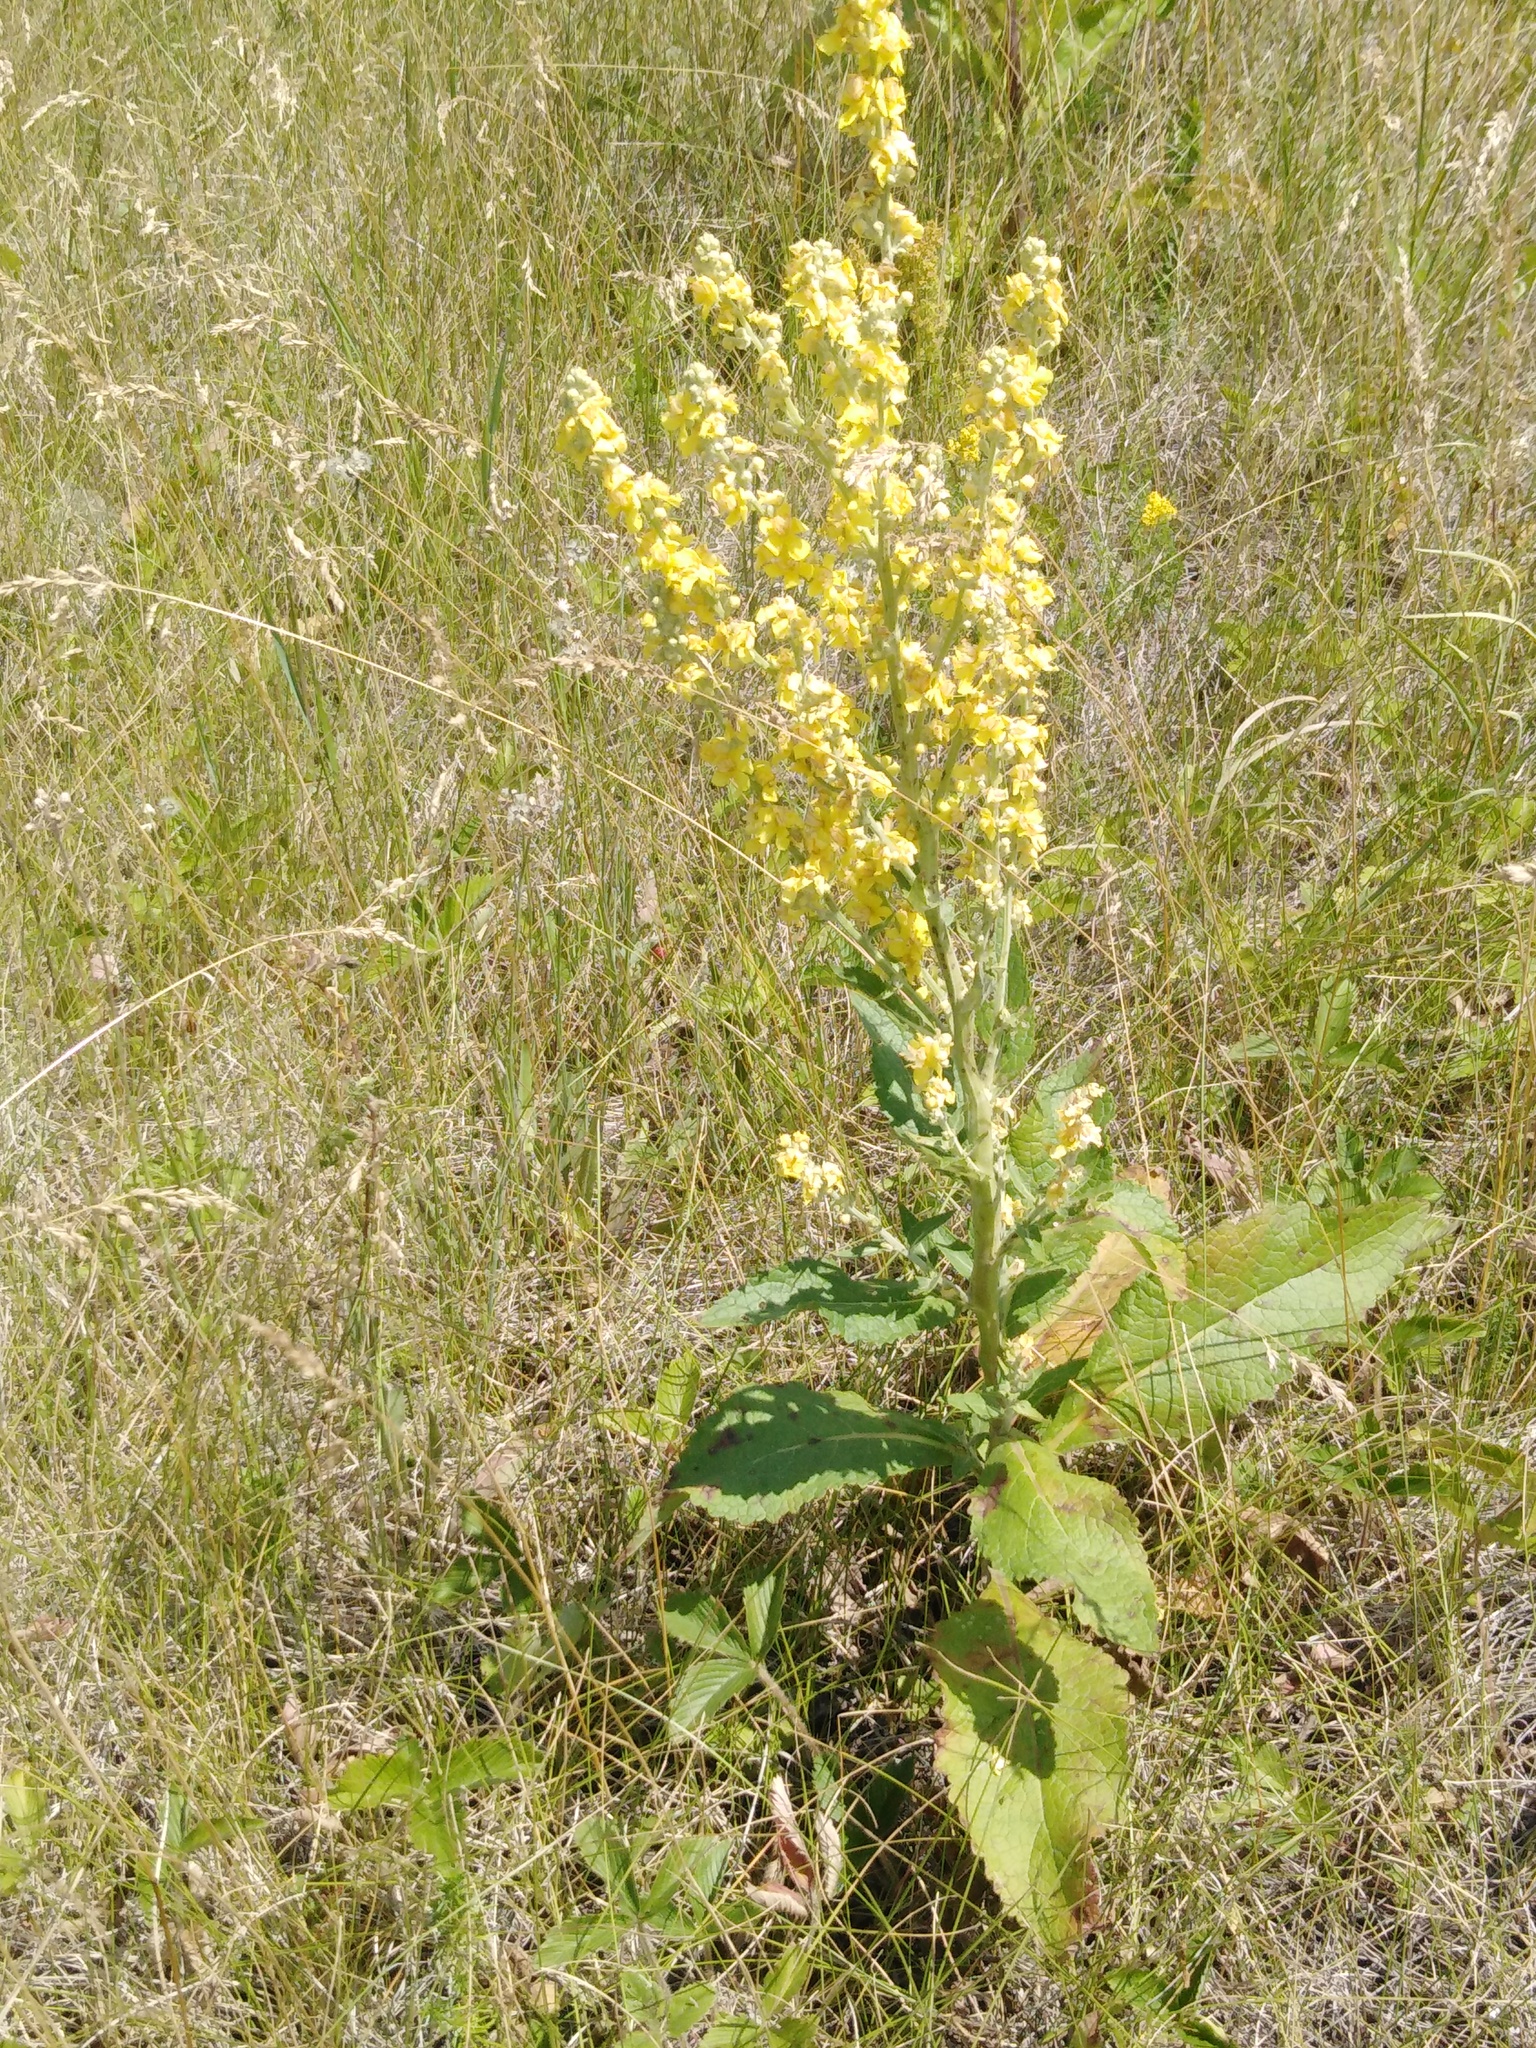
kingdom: Plantae
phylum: Tracheophyta
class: Magnoliopsida
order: Lamiales
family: Scrophulariaceae
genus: Verbascum
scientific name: Verbascum lychnitis
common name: White mullein
